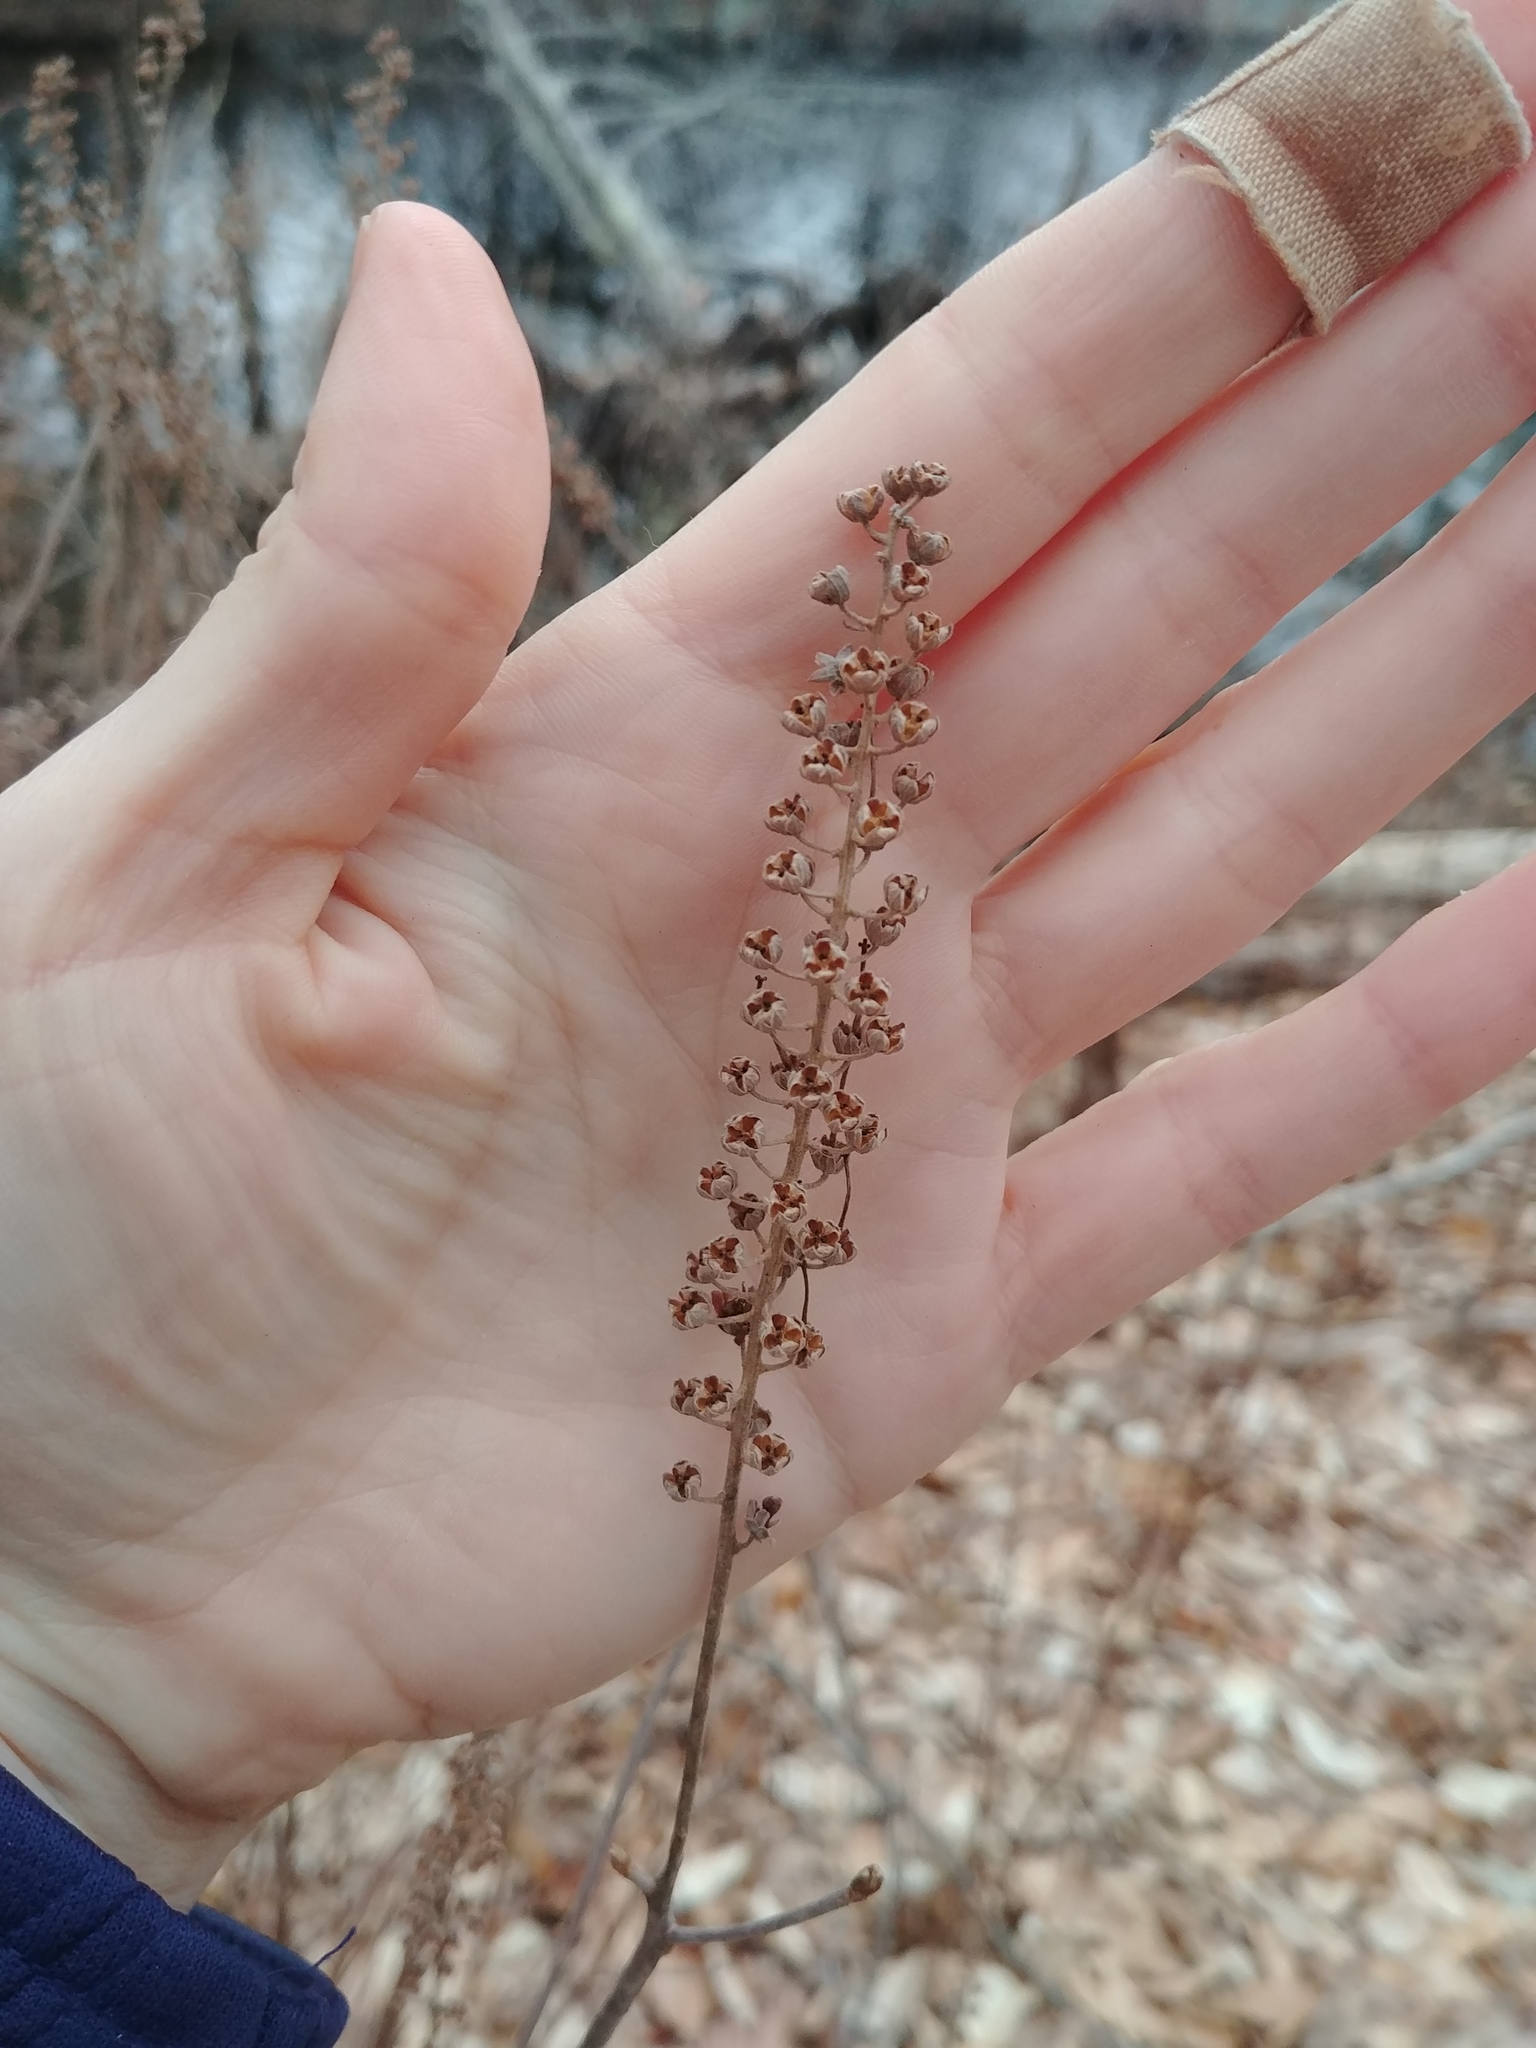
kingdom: Plantae
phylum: Tracheophyta
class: Magnoliopsida
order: Ericales
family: Clethraceae
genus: Clethra
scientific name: Clethra alnifolia
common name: Sweet pepperbush
